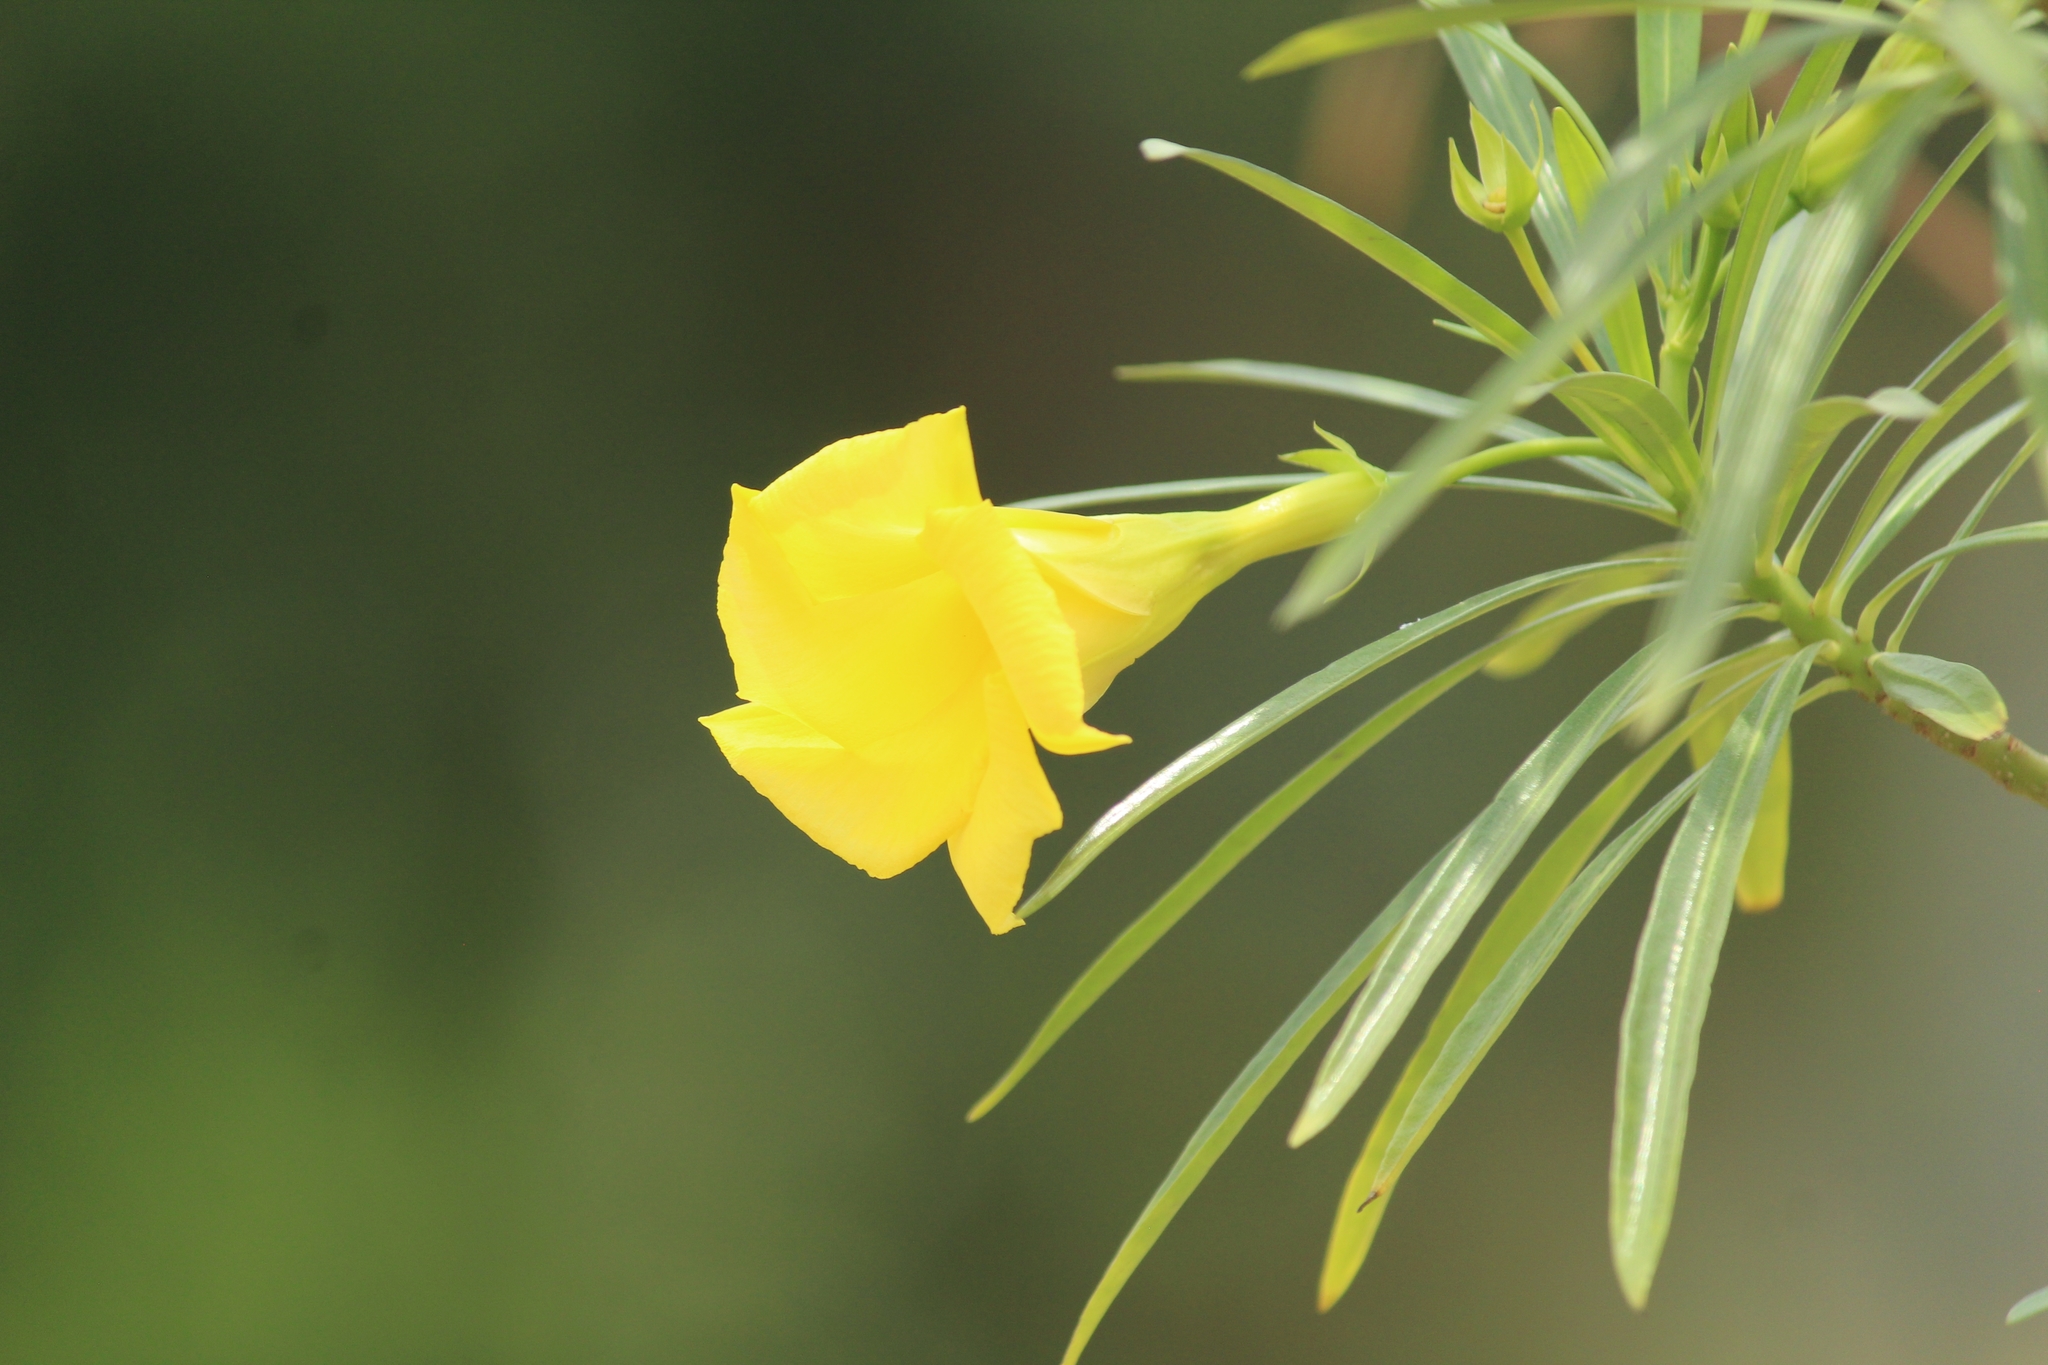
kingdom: Plantae
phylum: Tracheophyta
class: Magnoliopsida
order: Gentianales
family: Apocynaceae
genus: Cascabela
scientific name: Cascabela thevetia
